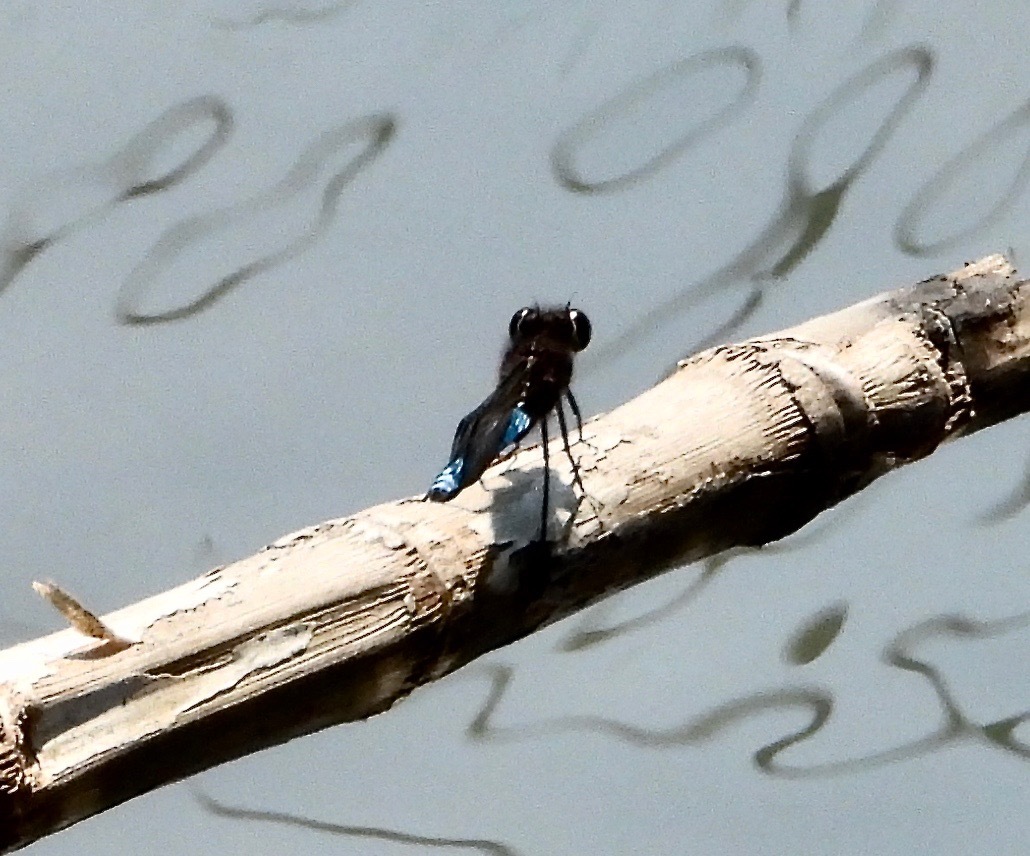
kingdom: Animalia
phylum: Arthropoda
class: Insecta
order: Odonata
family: Chlorocyphidae
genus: Platycypha
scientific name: Platycypha bamptoni
